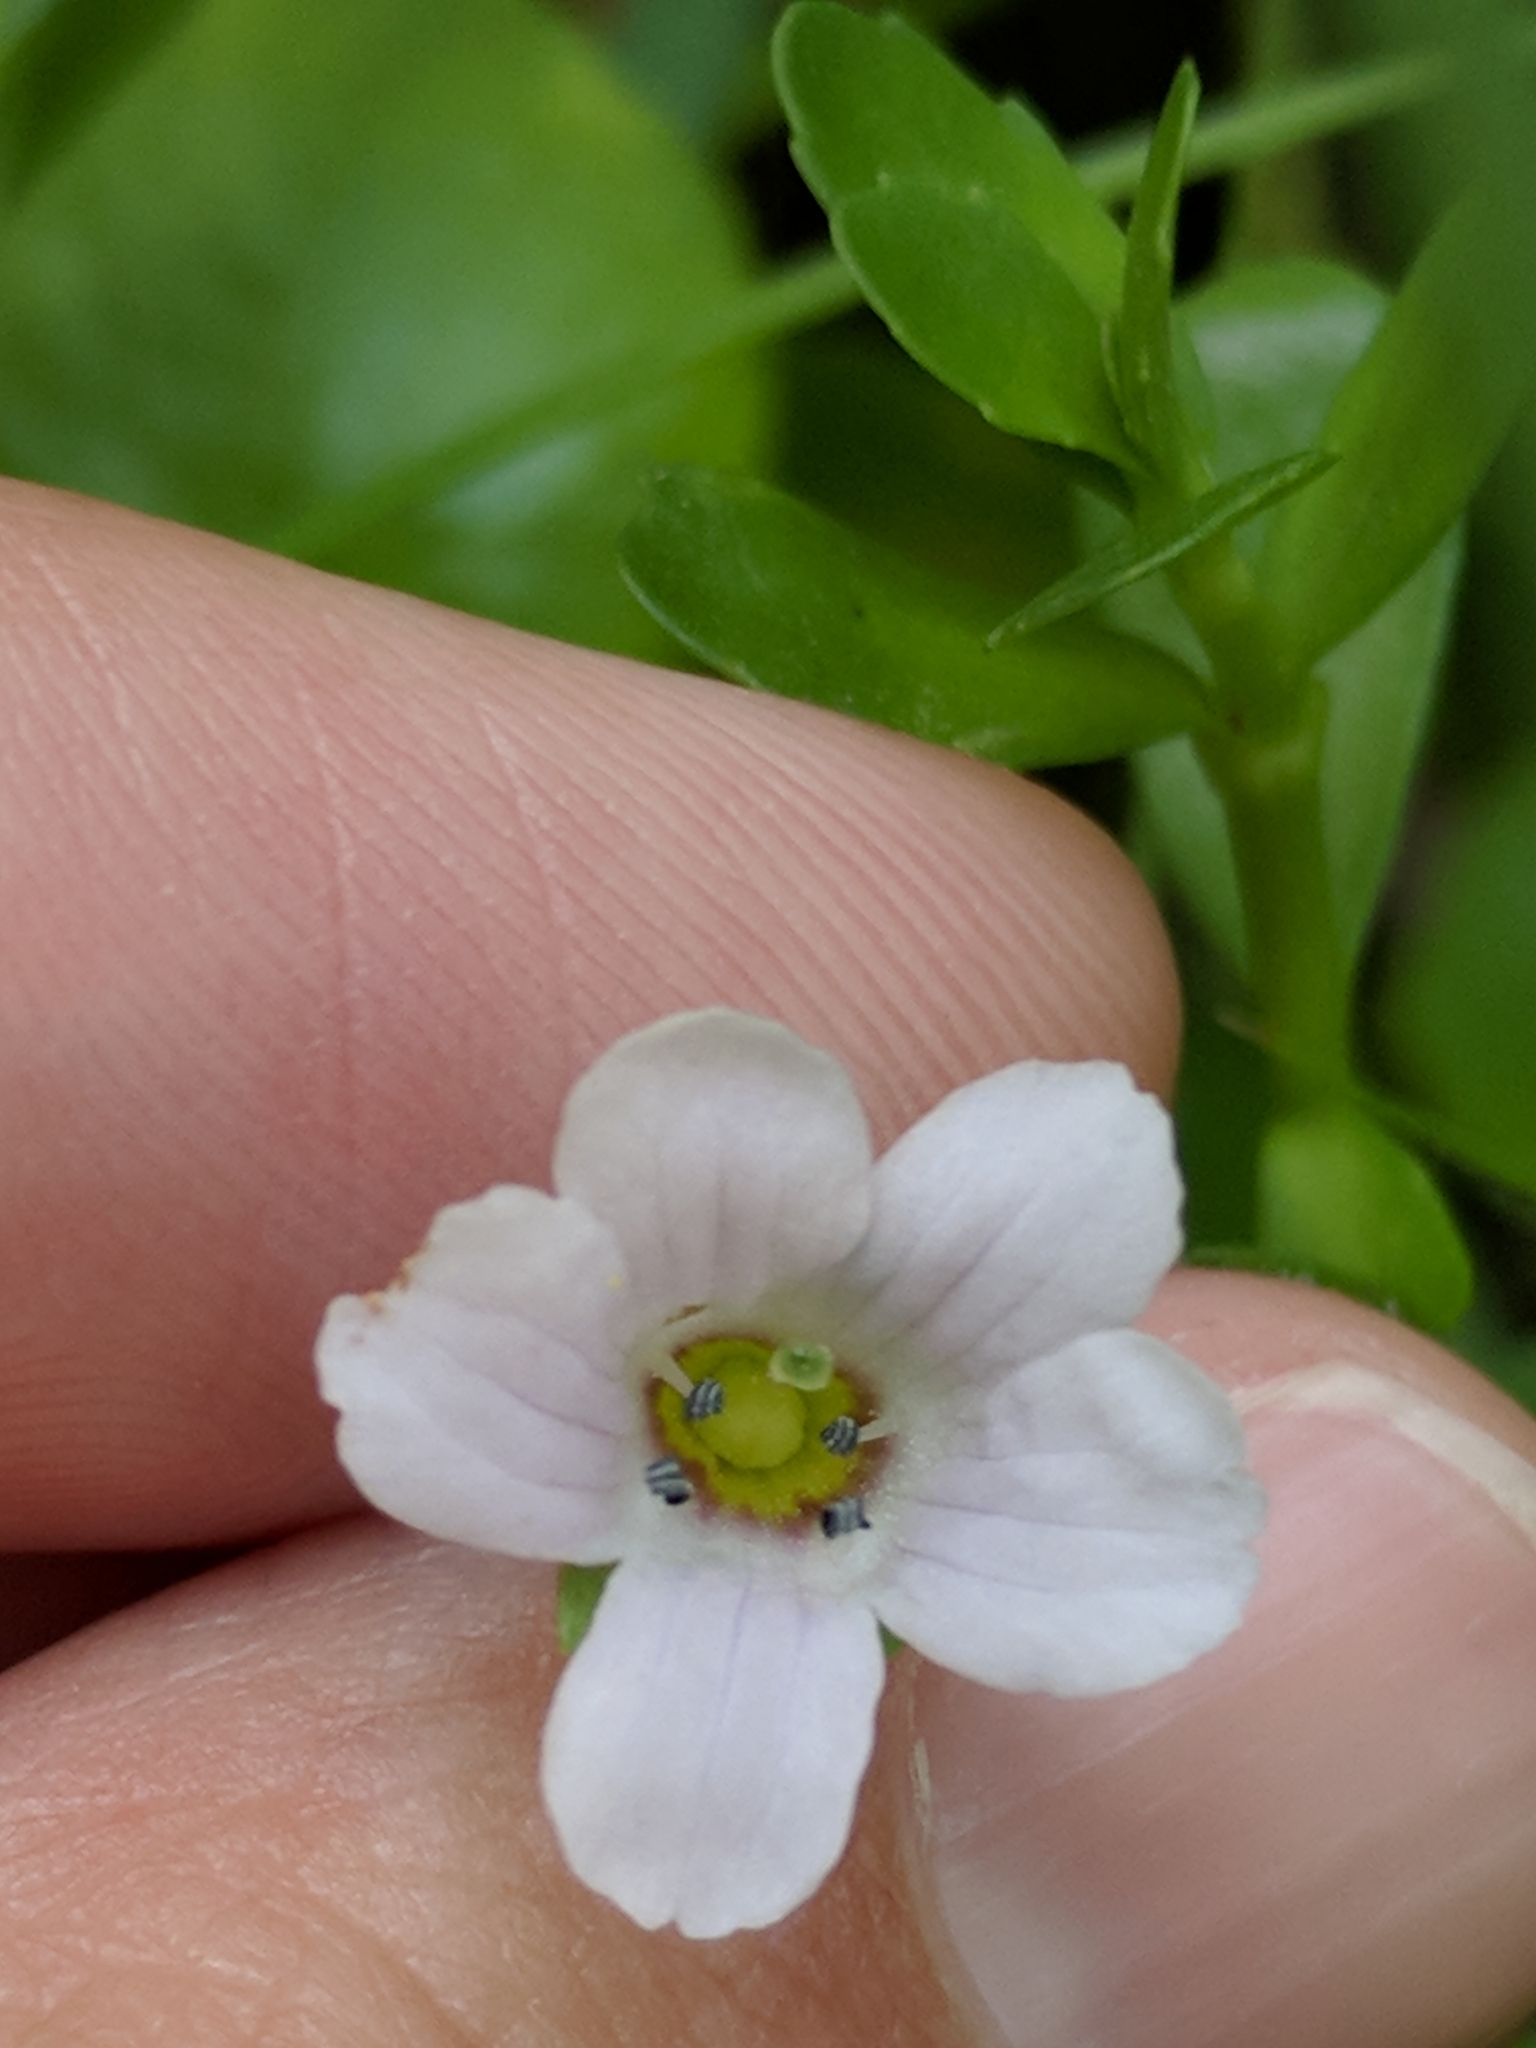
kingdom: Plantae
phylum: Tracheophyta
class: Magnoliopsida
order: Lamiales
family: Plantaginaceae
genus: Bacopa
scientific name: Bacopa monnieri
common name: Indian-pennywort
